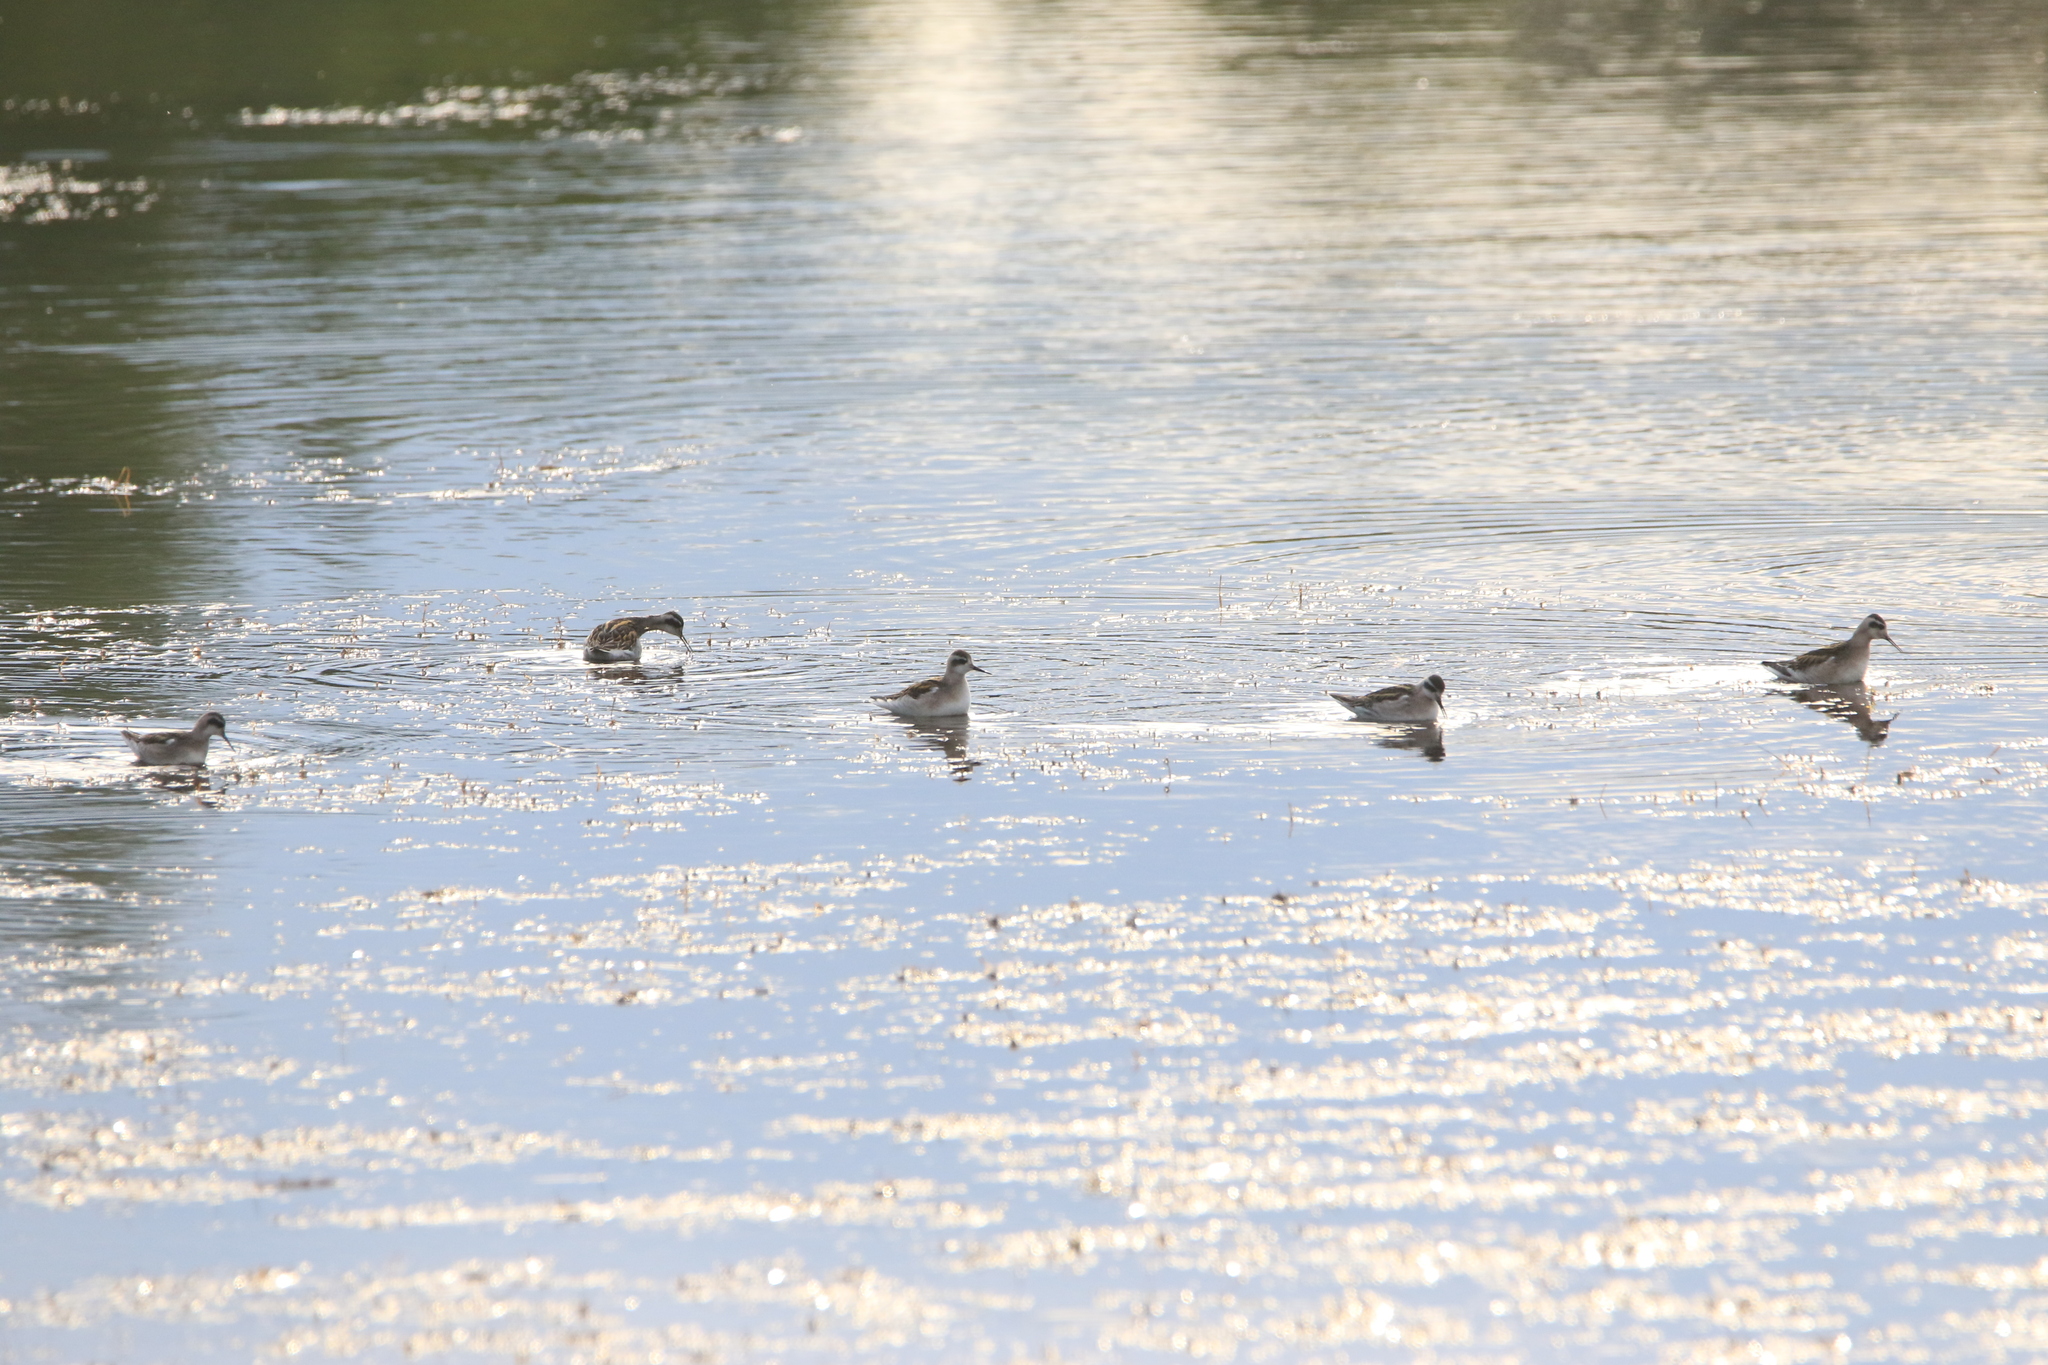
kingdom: Animalia
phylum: Chordata
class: Aves
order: Charadriiformes
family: Scolopacidae
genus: Phalaropus
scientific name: Phalaropus lobatus
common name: Red-necked phalarope
